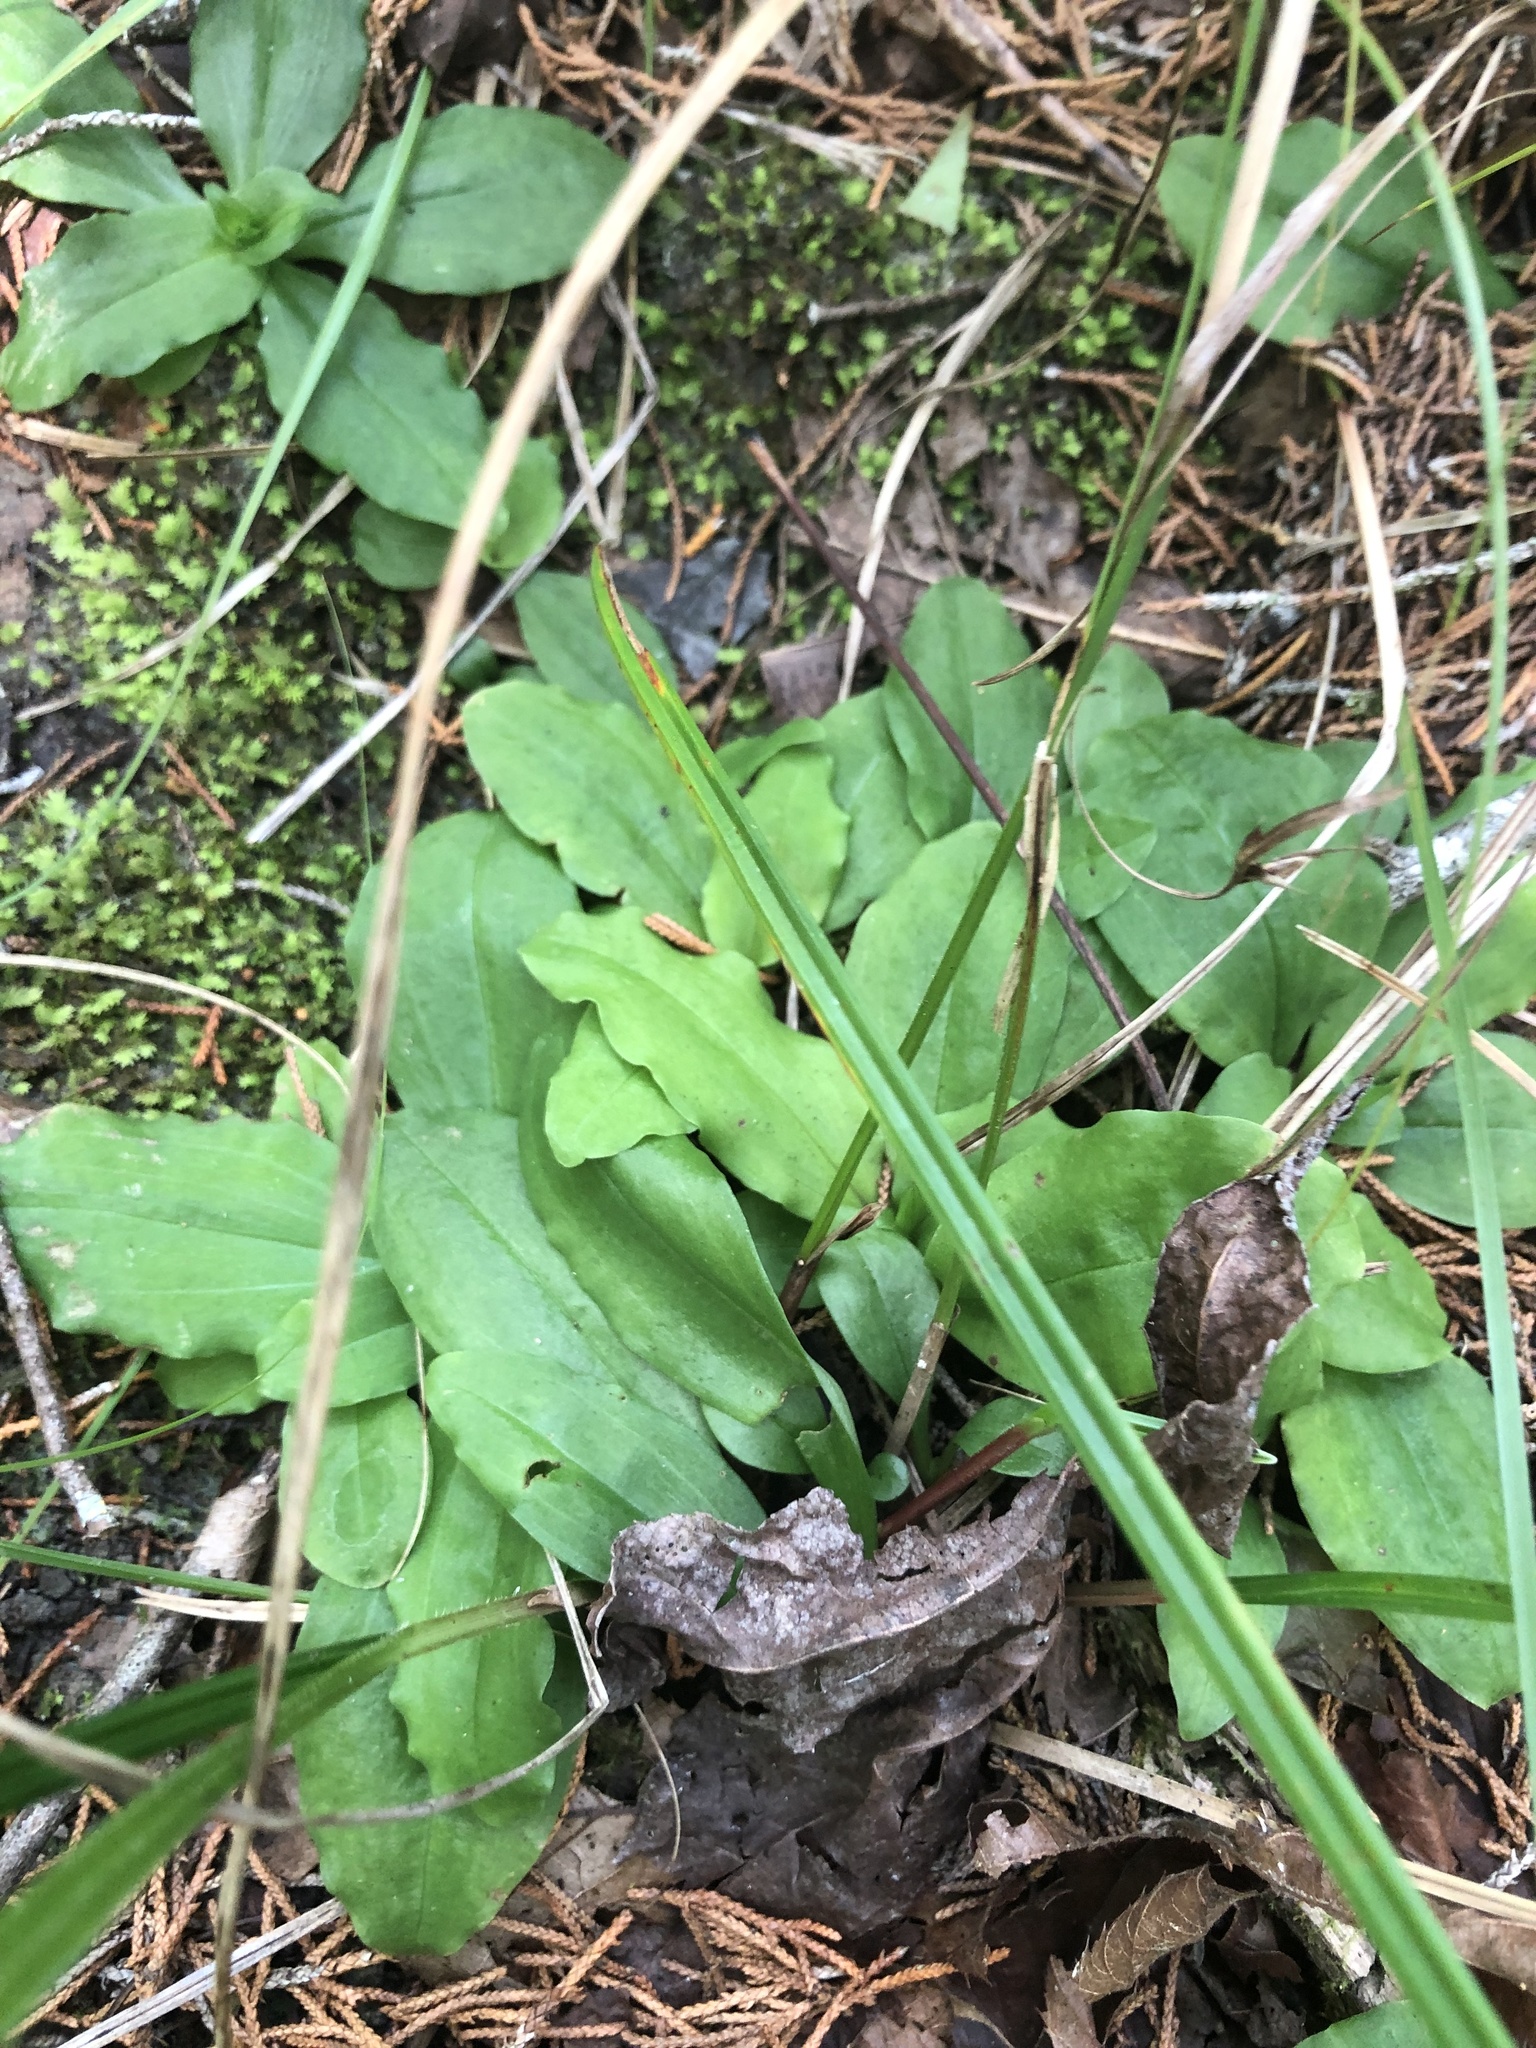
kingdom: Plantae
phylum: Tracheophyta
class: Liliopsida
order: Asparagales
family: Orchidaceae
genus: Ponthieva
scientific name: Ponthieva racemosa
